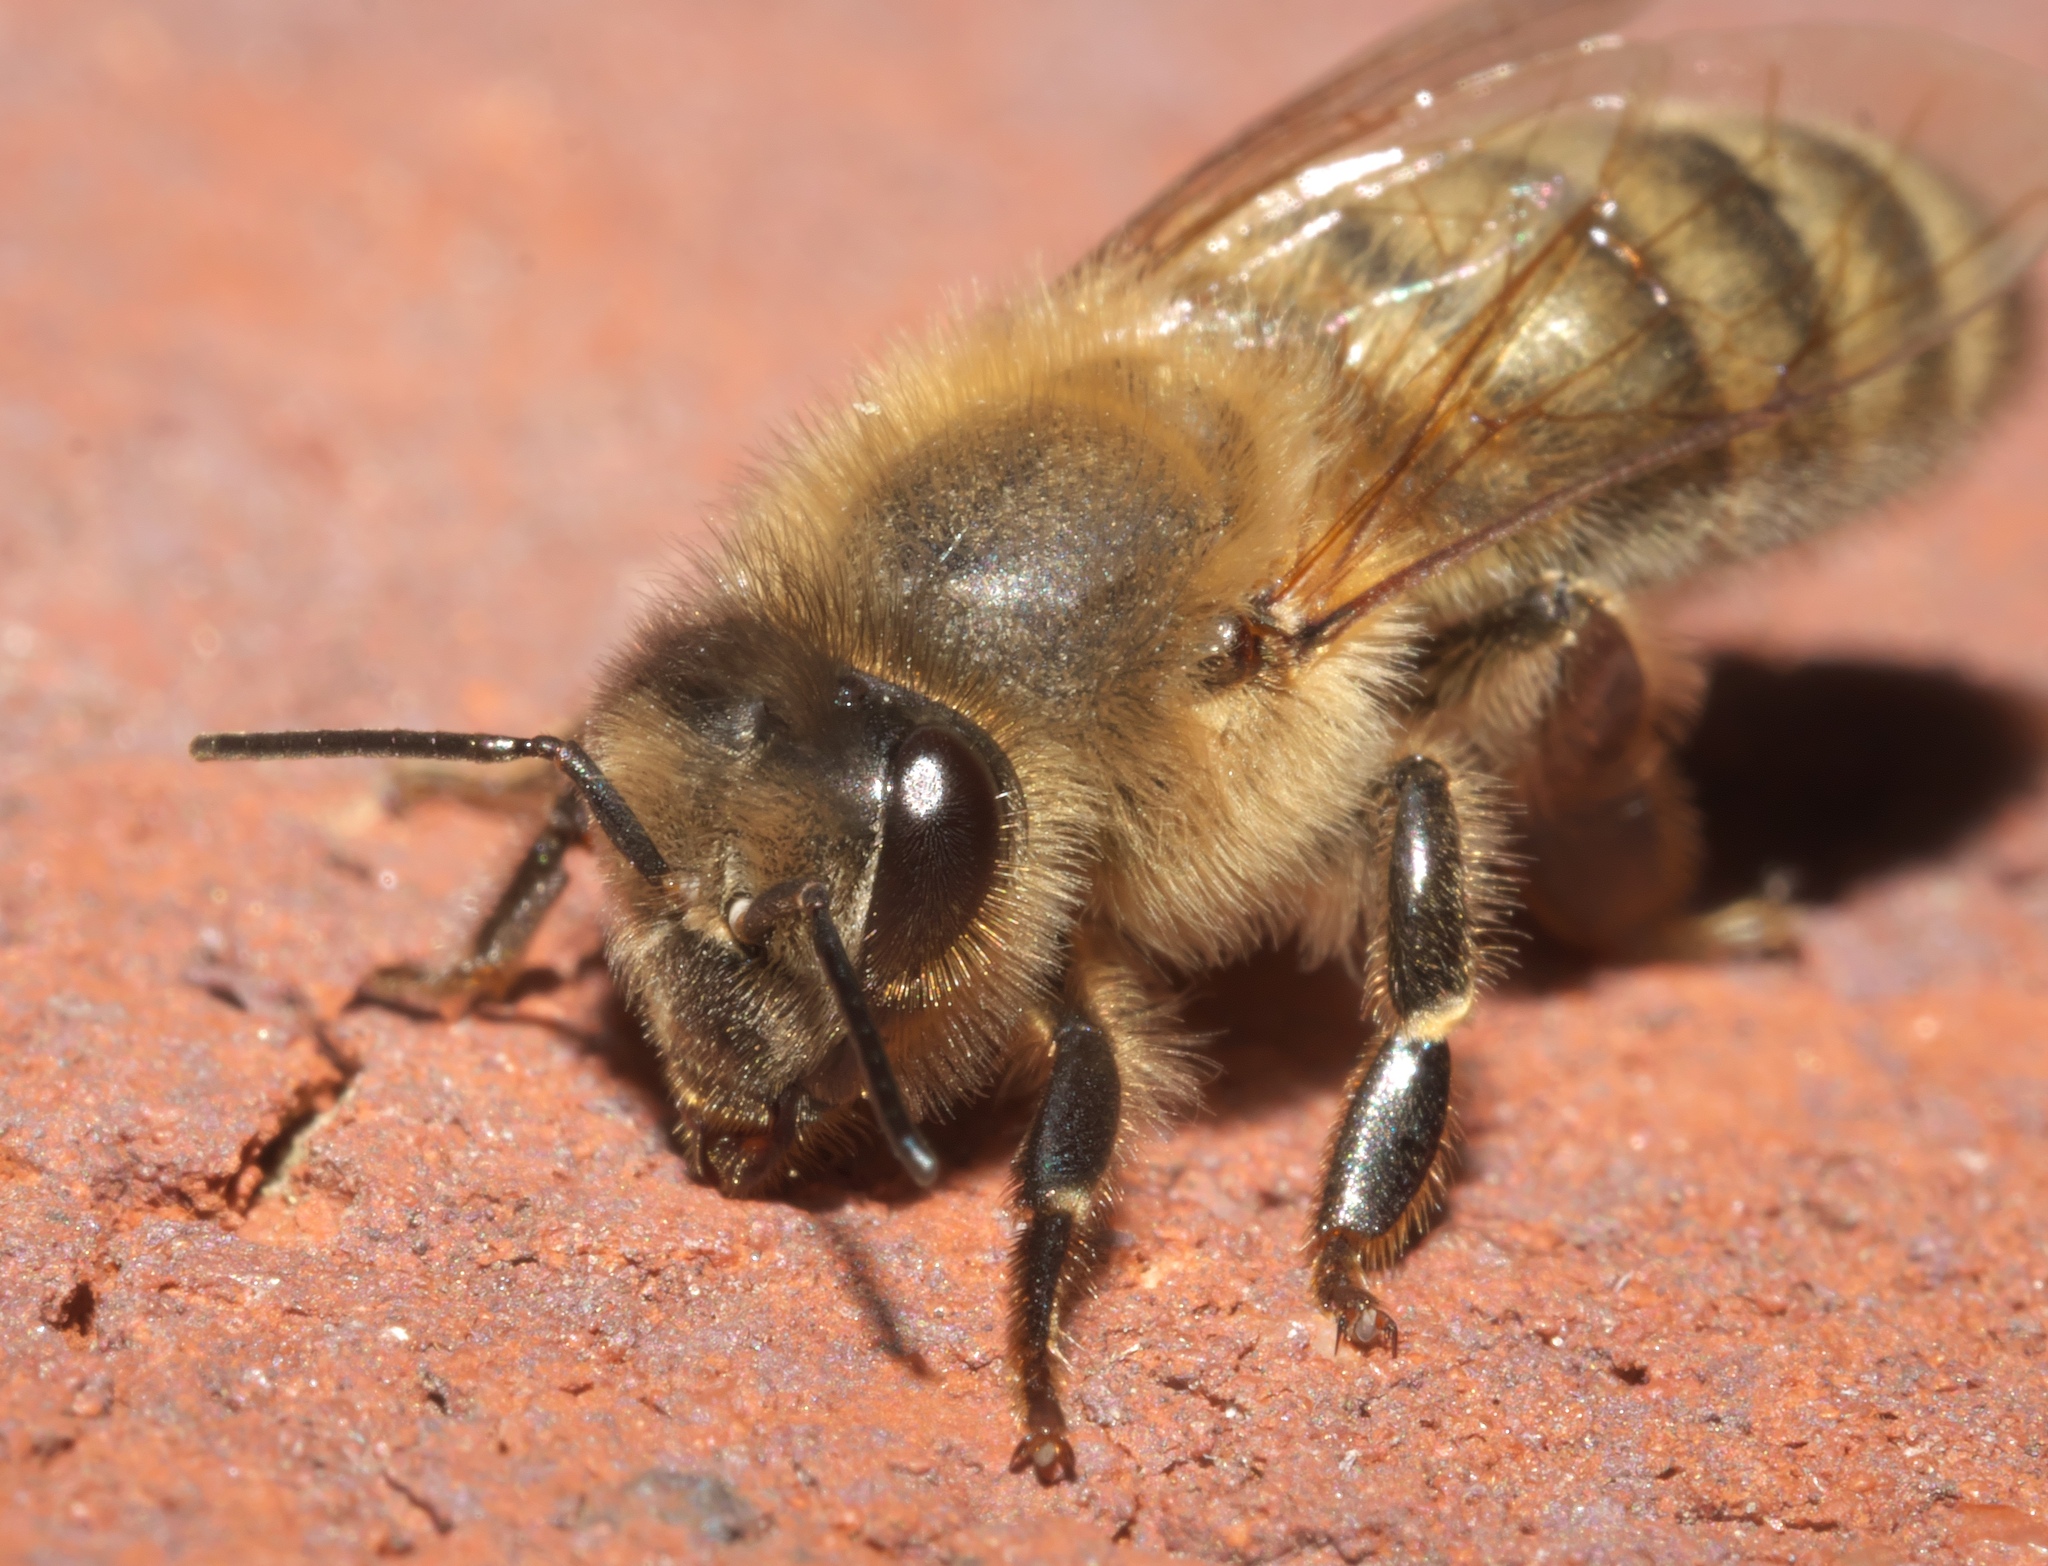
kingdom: Animalia
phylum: Arthropoda
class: Insecta
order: Hymenoptera
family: Apidae
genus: Apis
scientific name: Apis mellifera
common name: Honey bee
